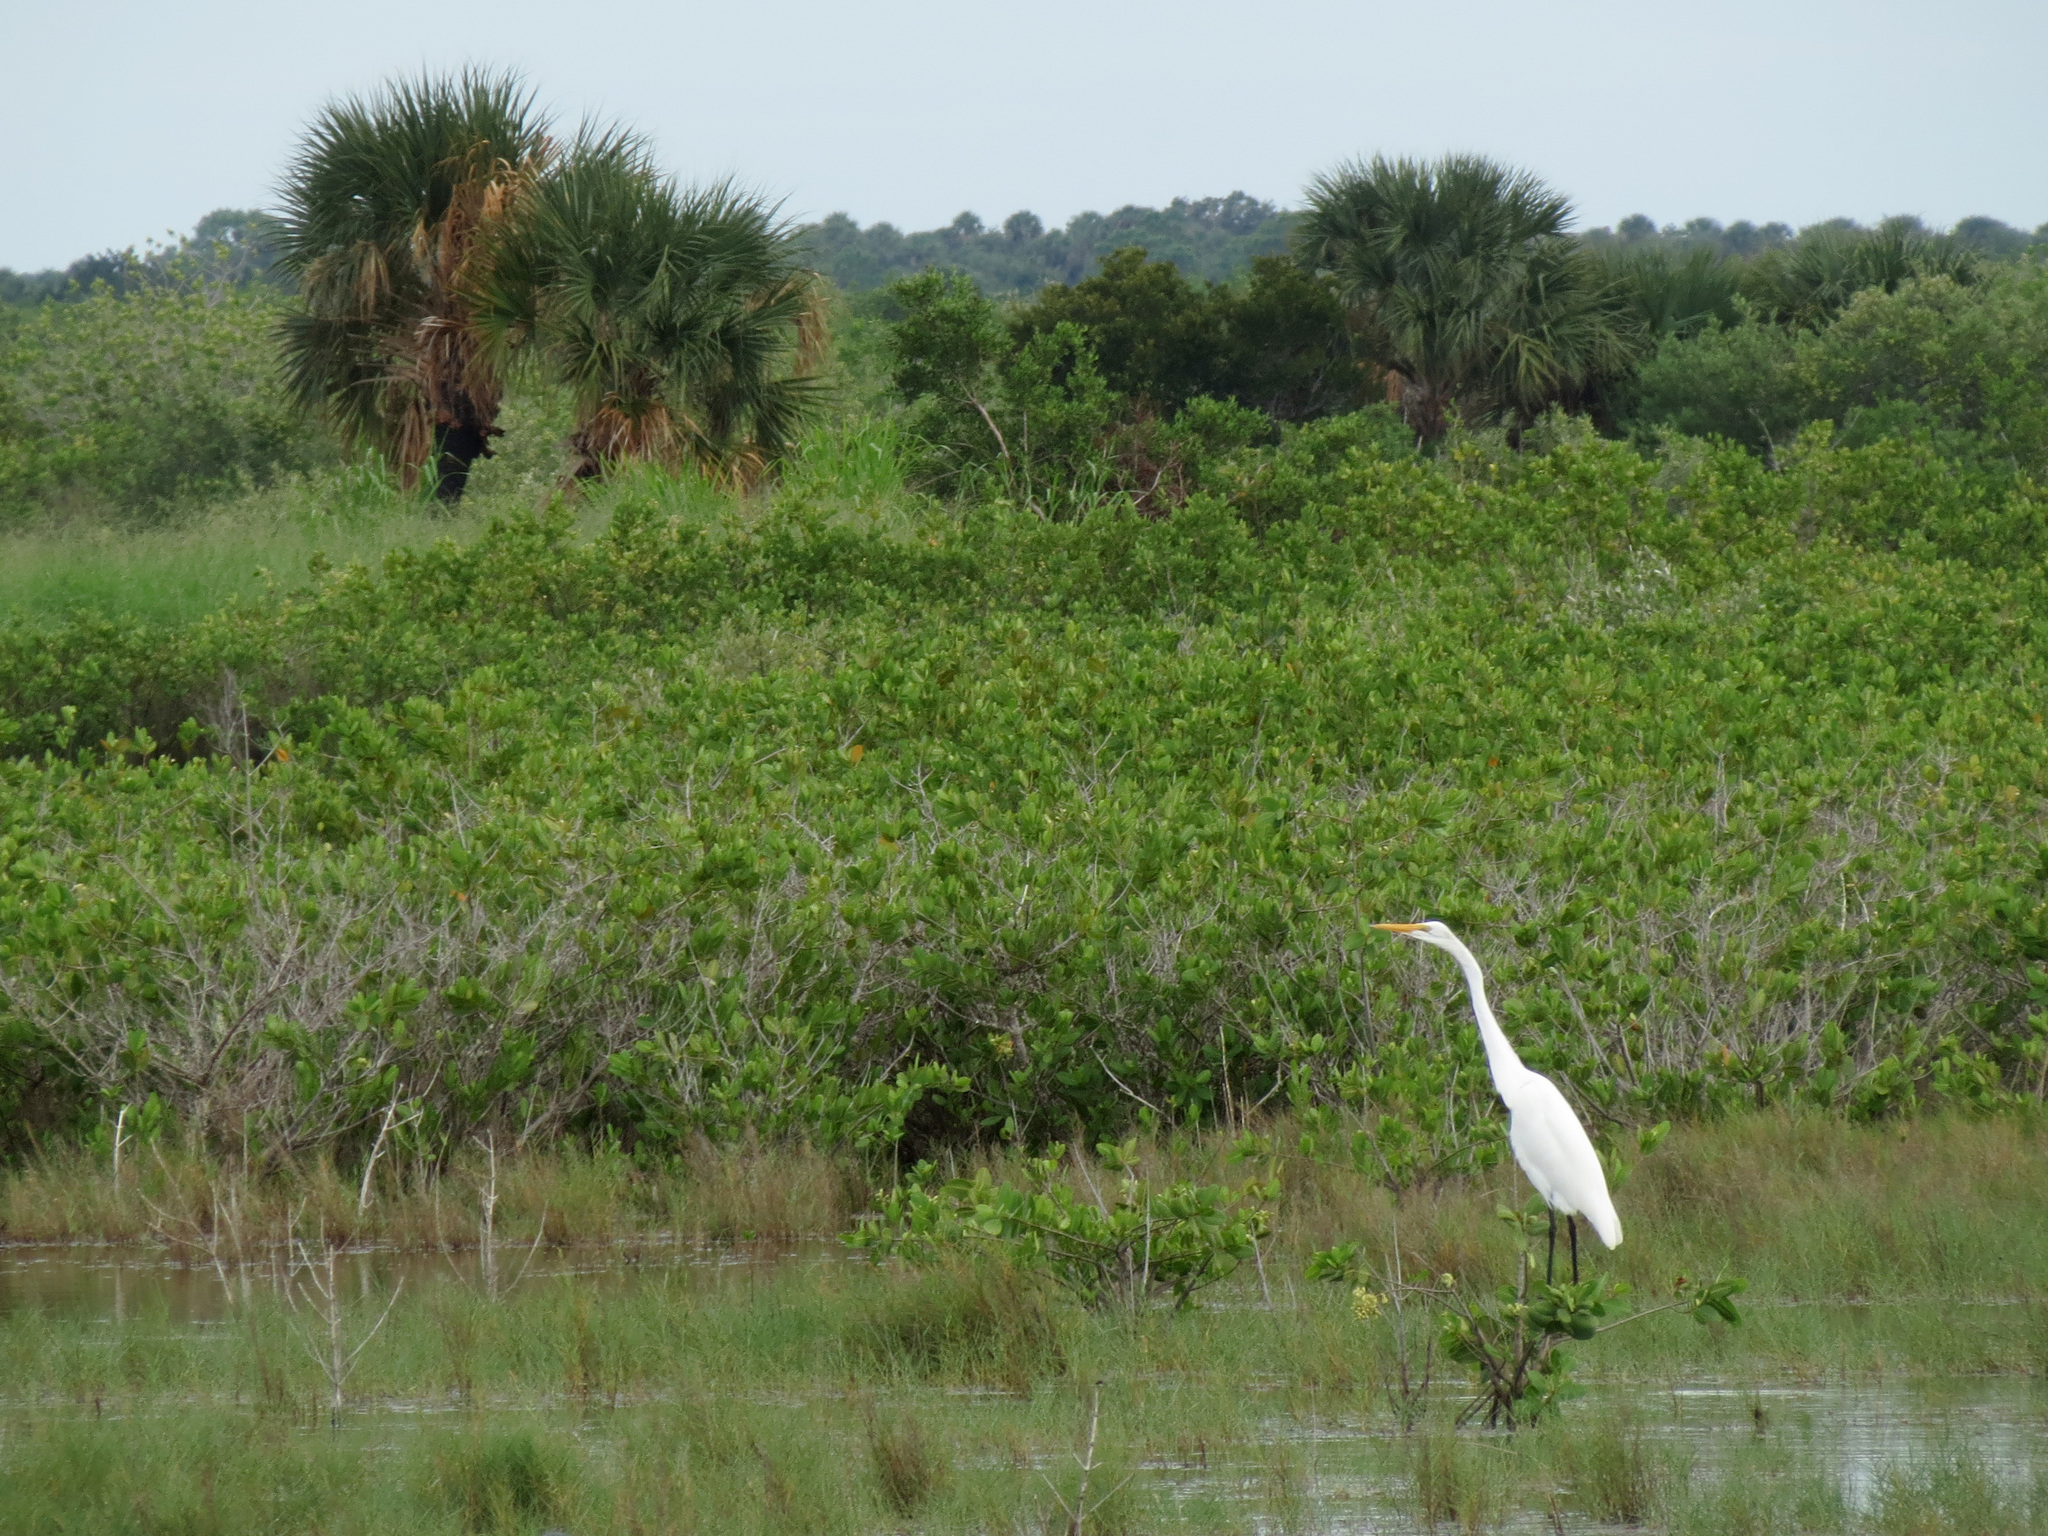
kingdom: Animalia
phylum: Chordata
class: Aves
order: Pelecaniformes
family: Ardeidae
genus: Ardea
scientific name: Ardea alba
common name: Great egret
